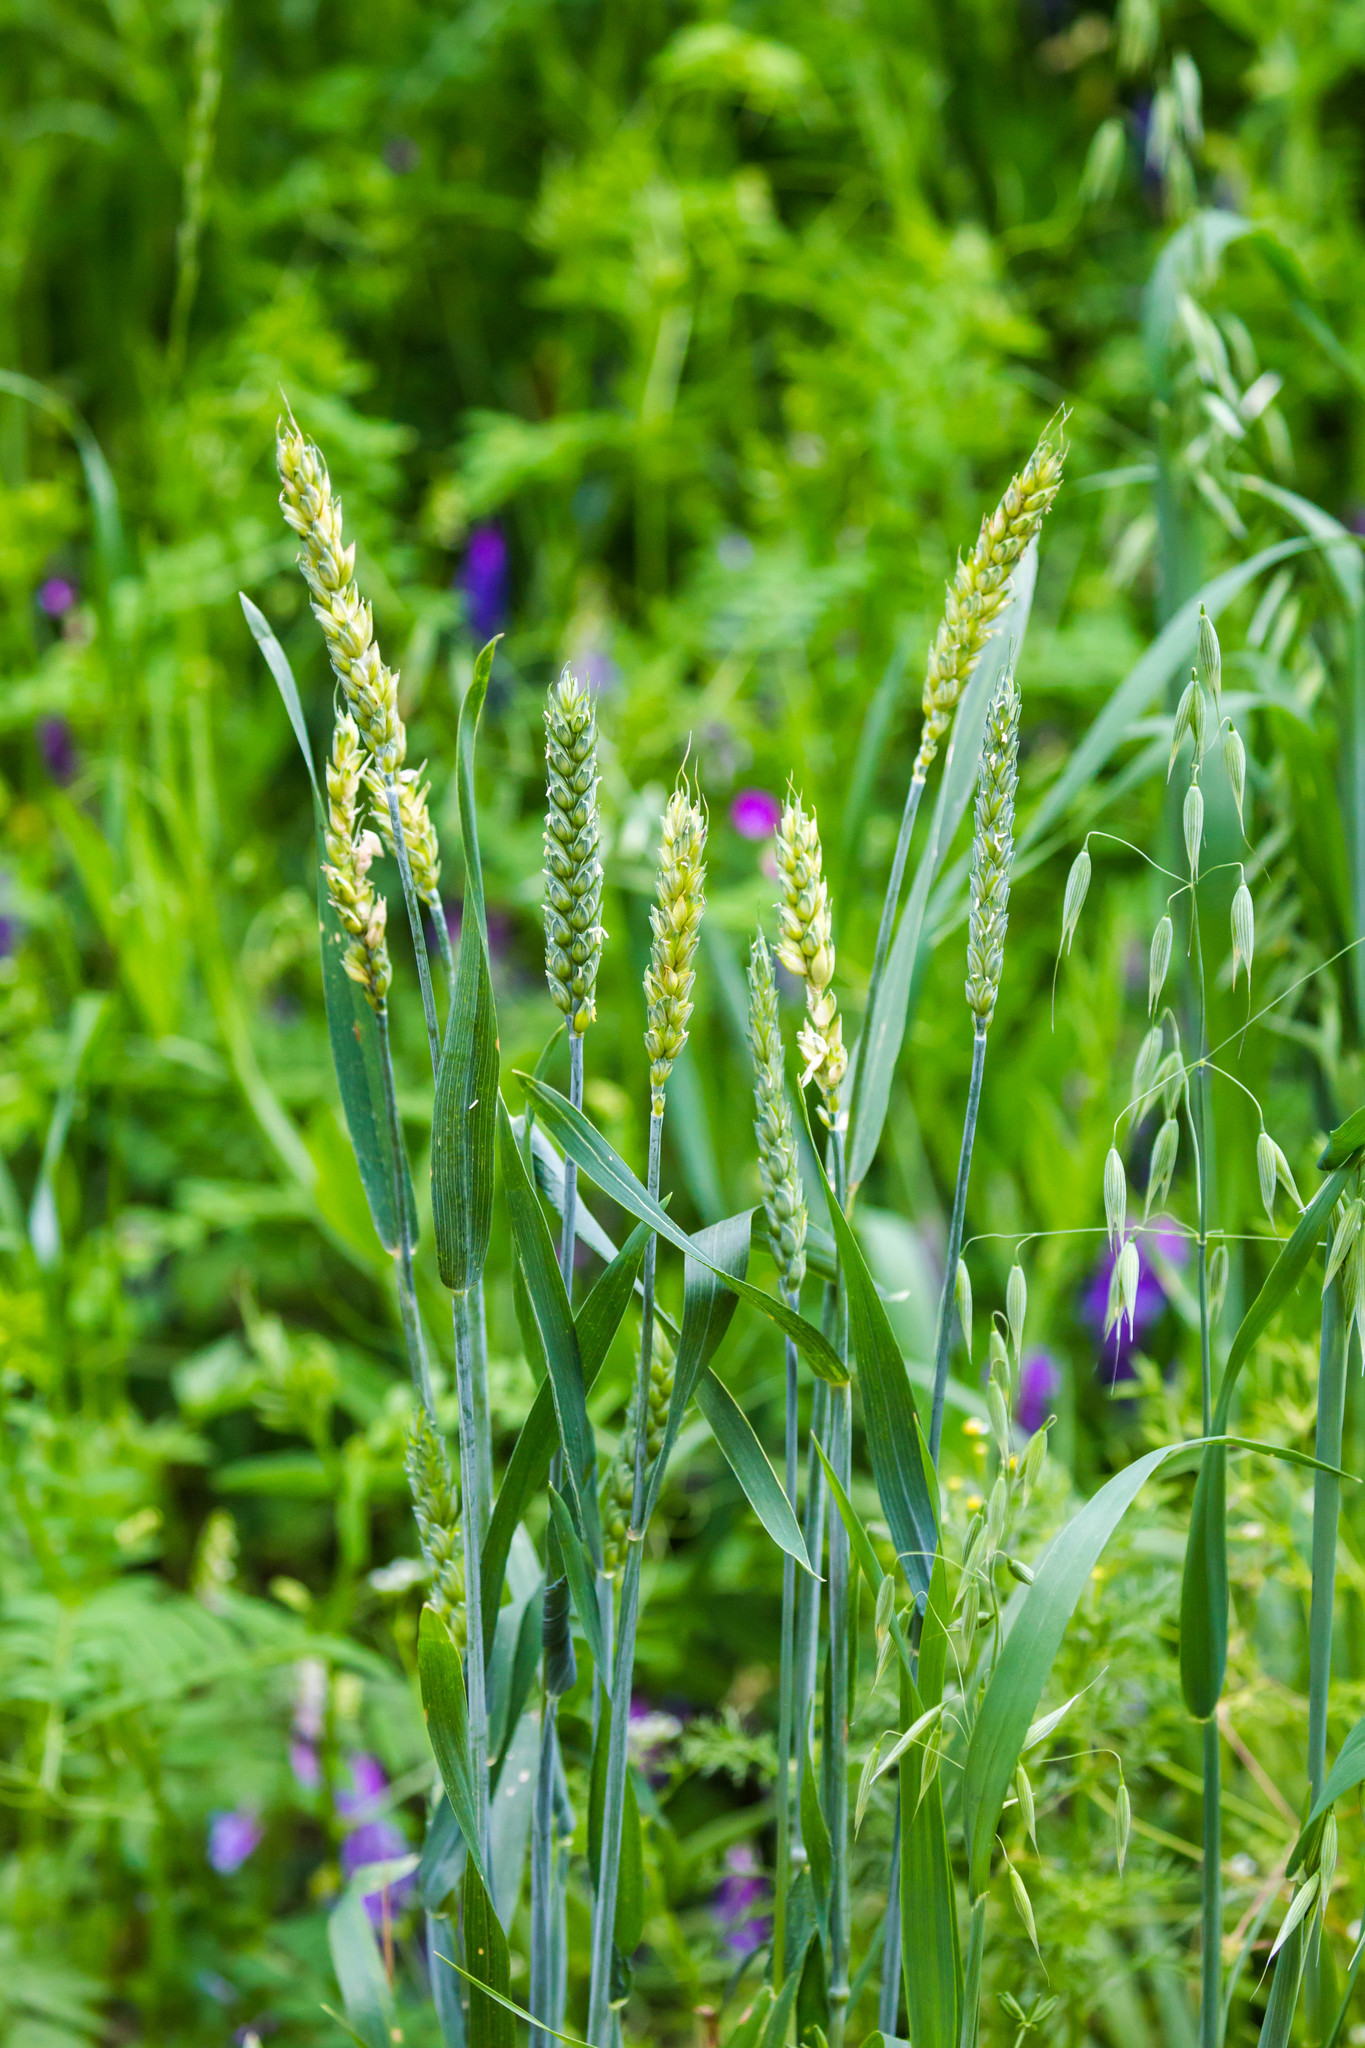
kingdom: Plantae
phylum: Tracheophyta
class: Liliopsida
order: Poales
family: Poaceae
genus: Triticum
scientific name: Triticum aestivum
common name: Common wheat
